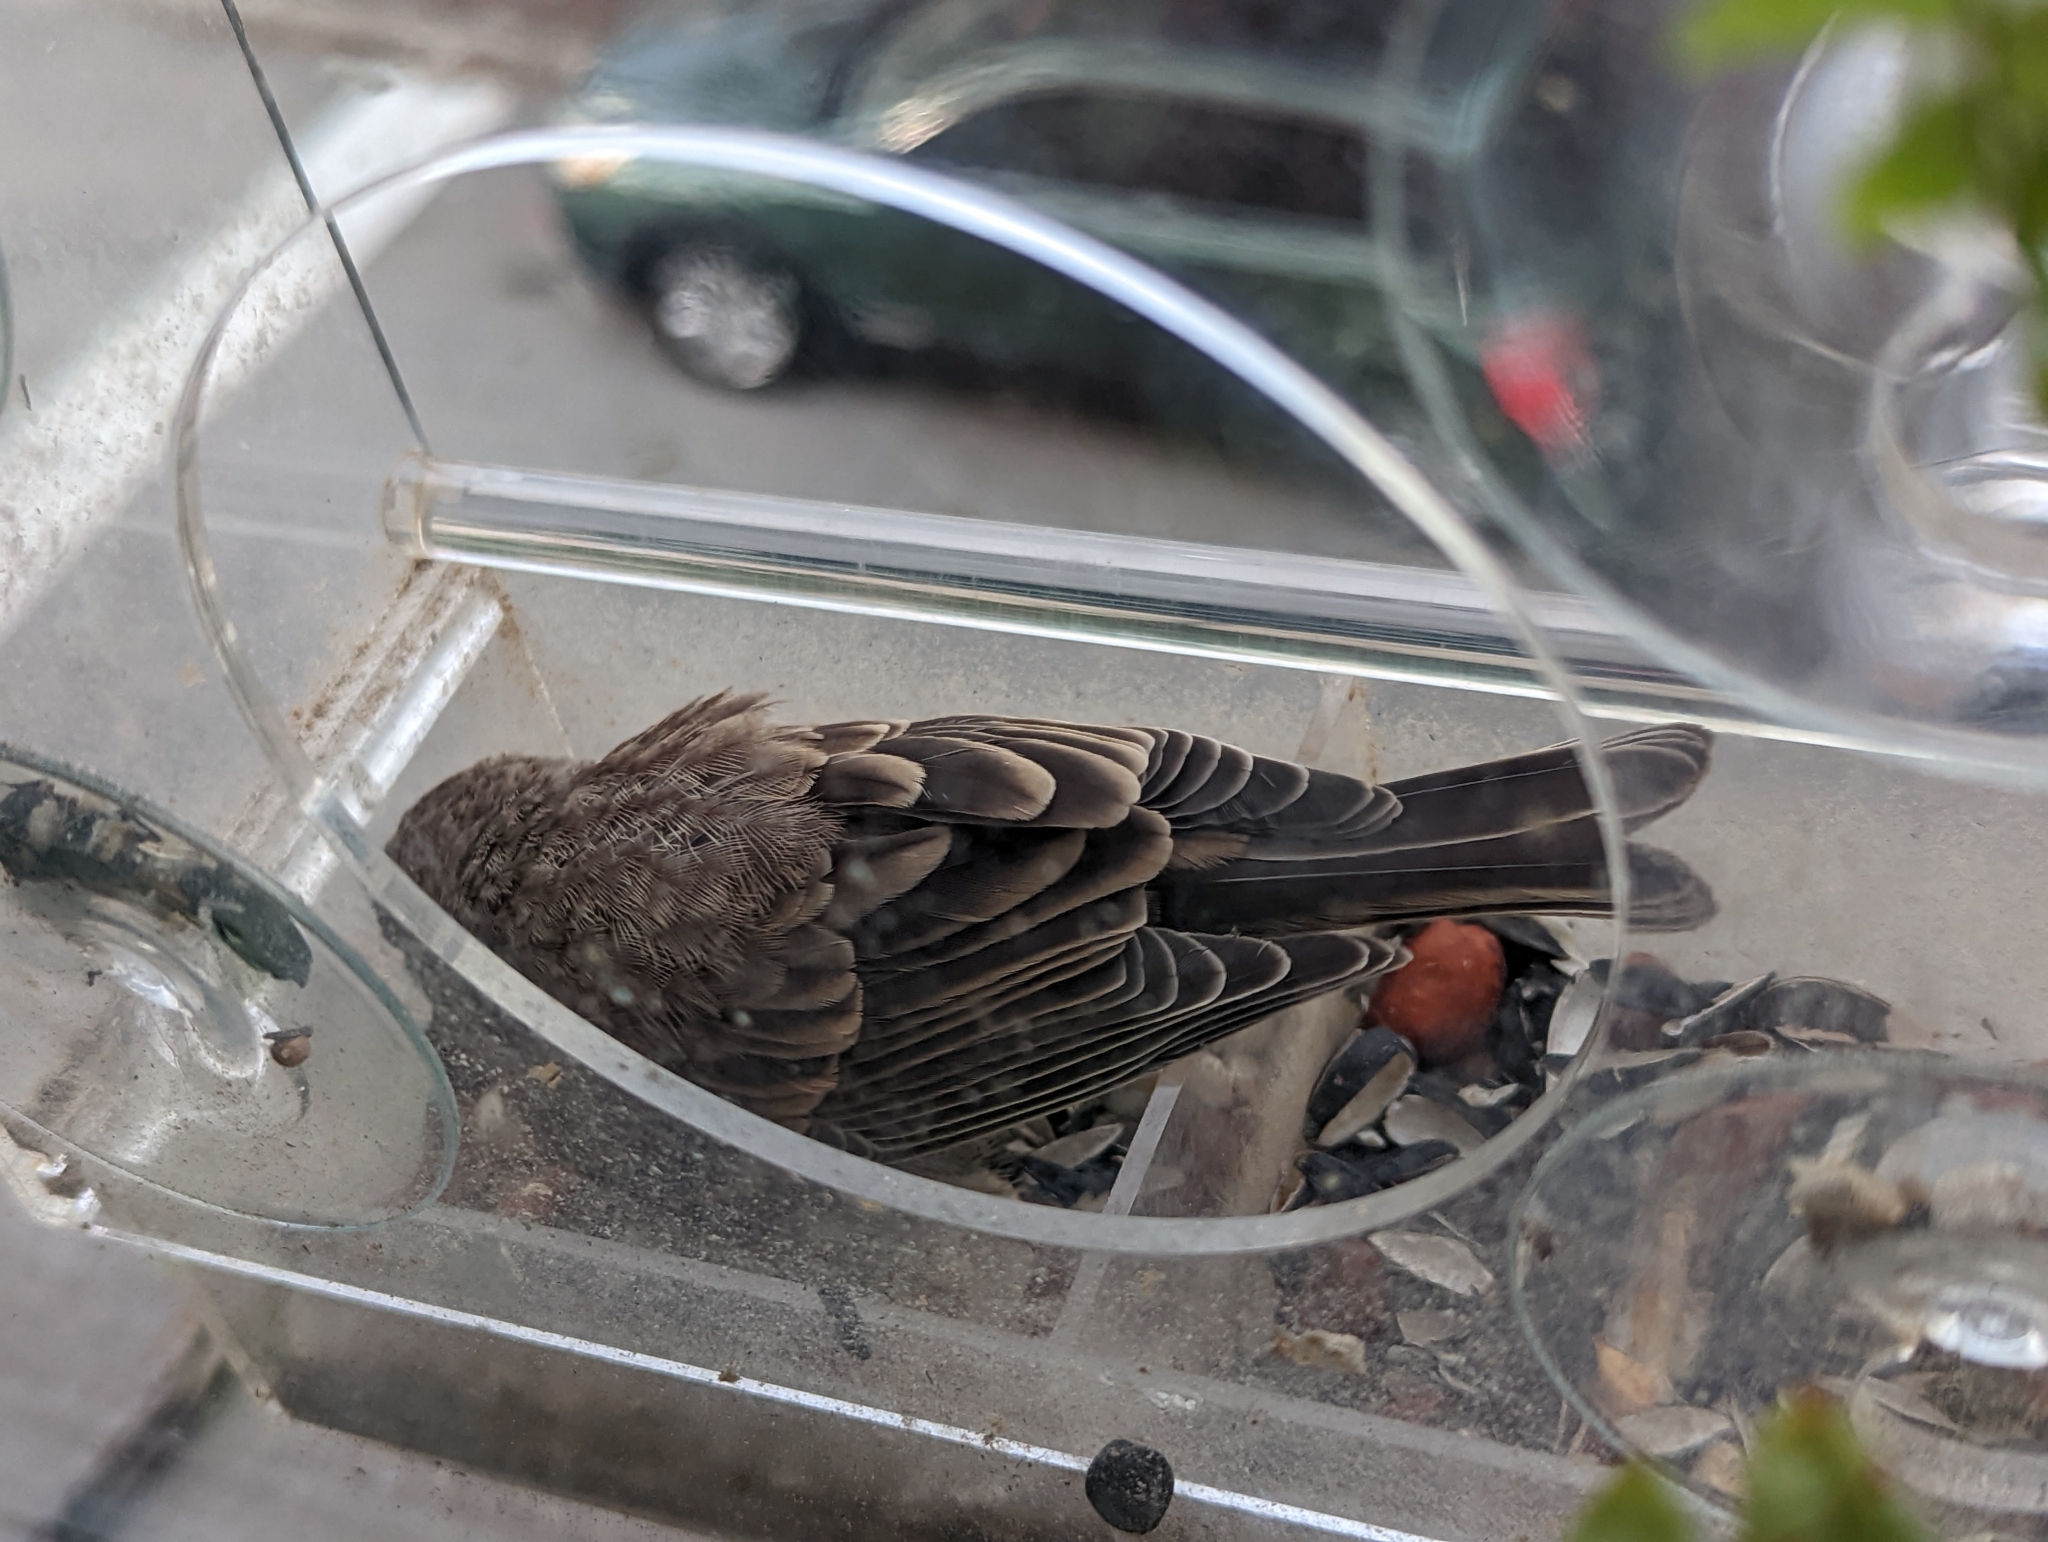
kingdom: Animalia
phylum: Chordata
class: Aves
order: Passeriformes
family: Fringillidae
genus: Haemorhous
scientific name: Haemorhous mexicanus
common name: House finch
